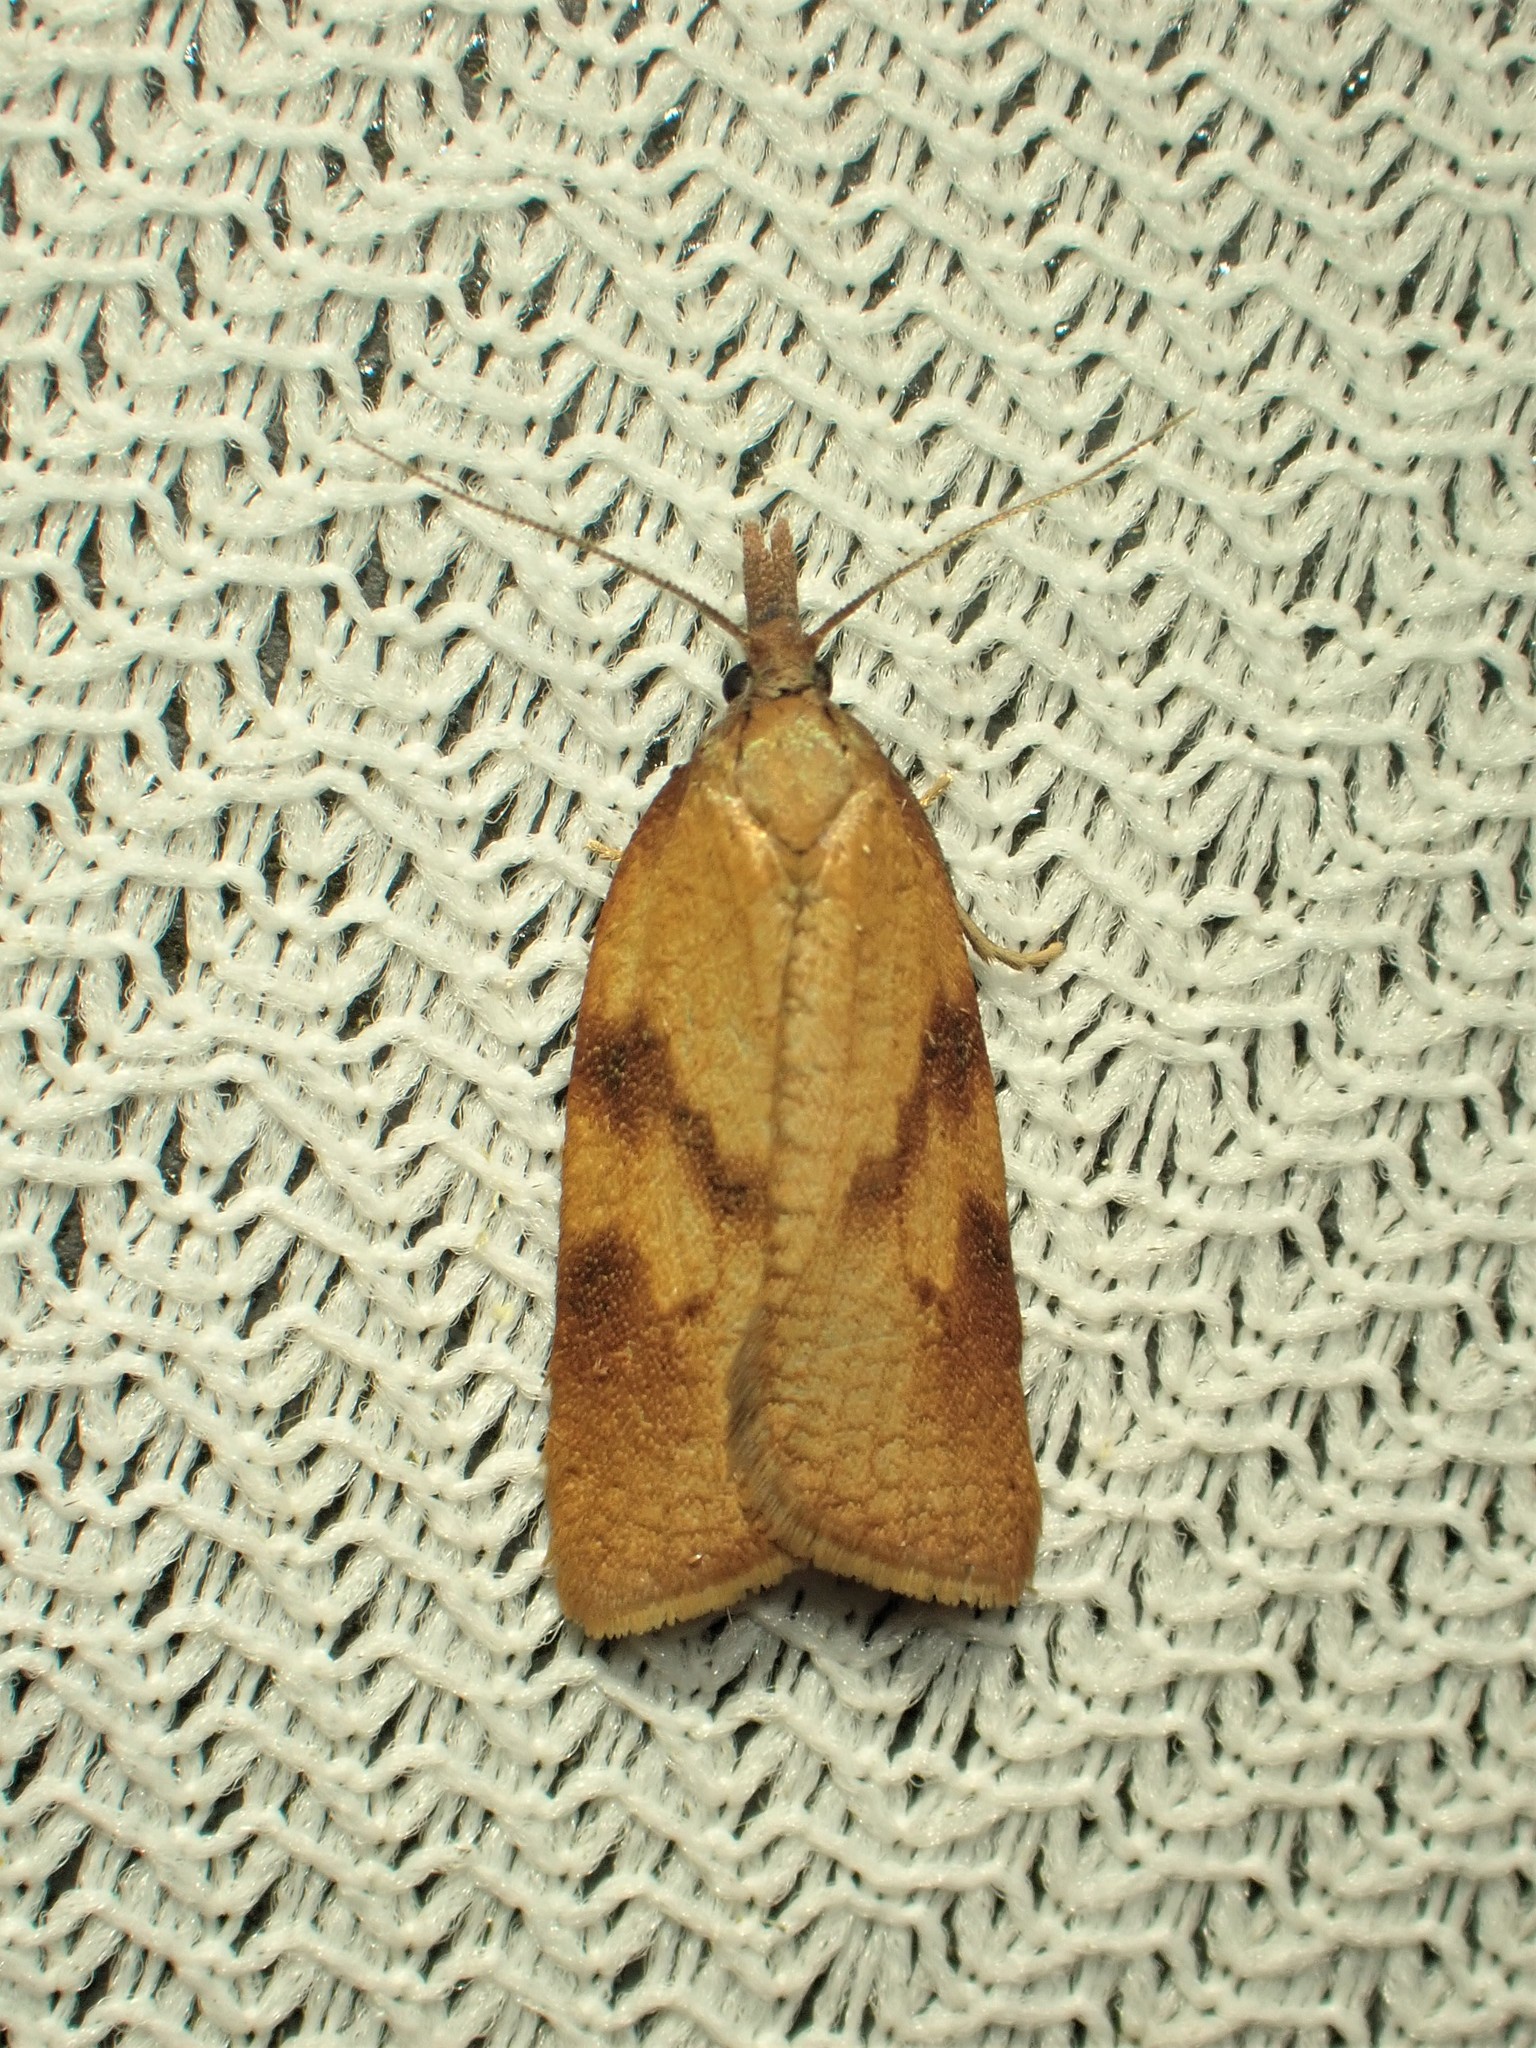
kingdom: Animalia
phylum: Arthropoda
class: Insecta
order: Lepidoptera
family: Tortricidae
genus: Sparganothis
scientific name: Sparganothis boweri
